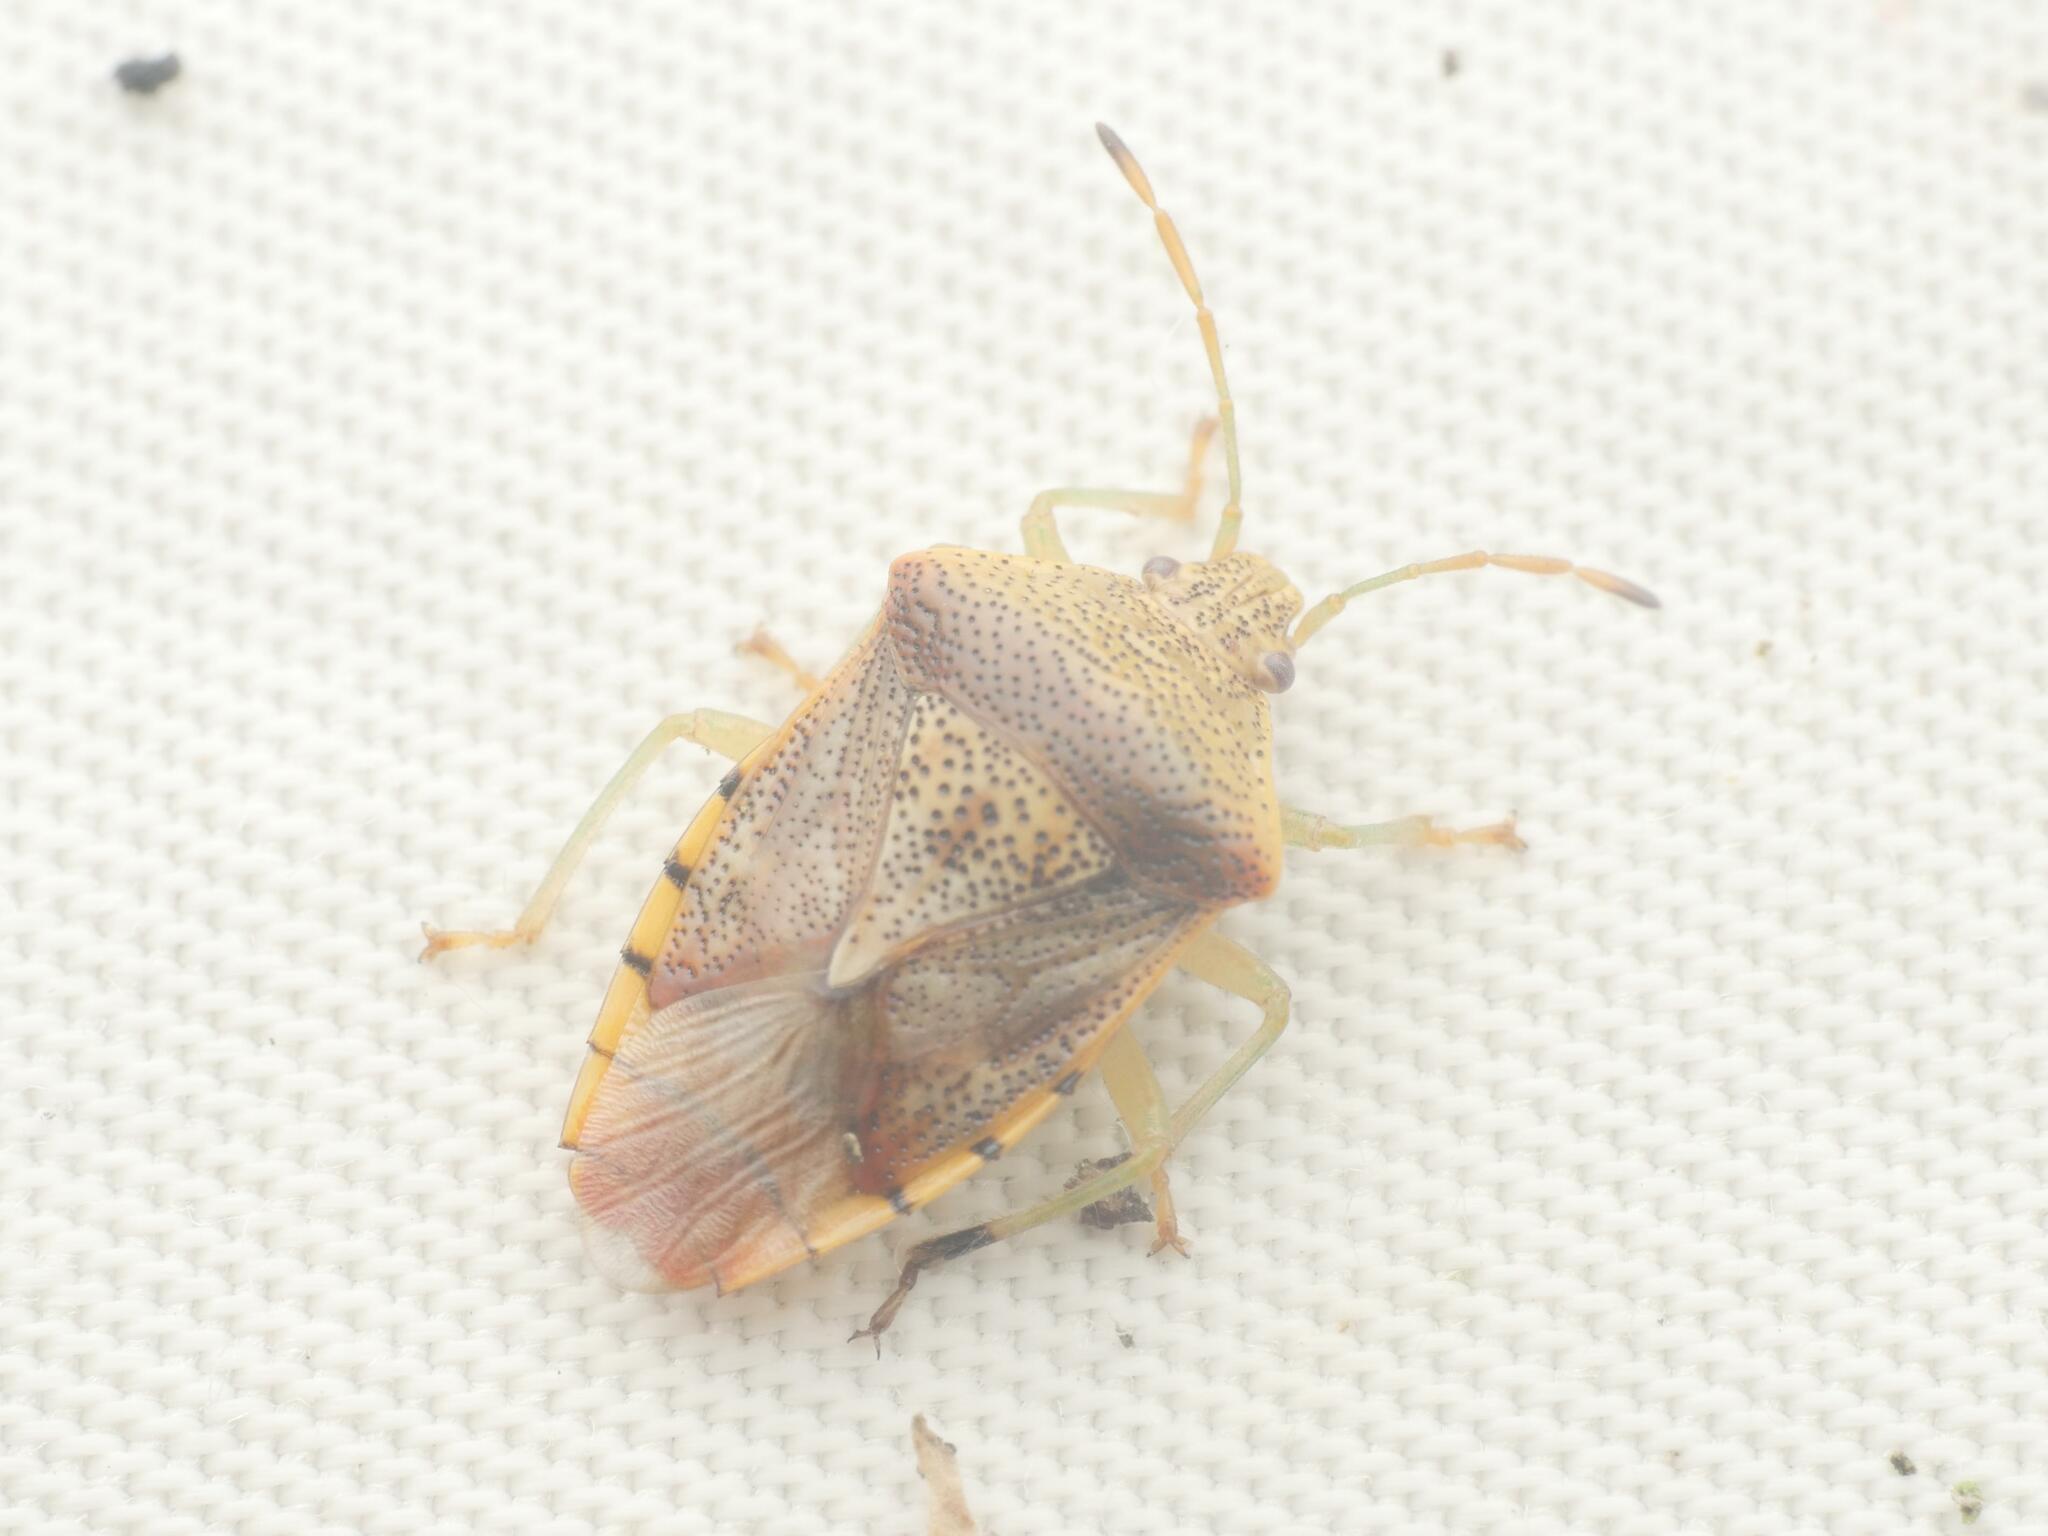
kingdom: Animalia
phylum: Arthropoda
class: Insecta
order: Hemiptera
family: Acanthosomatidae
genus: Elasmucha
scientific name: Elasmucha grisea
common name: Parent bug
